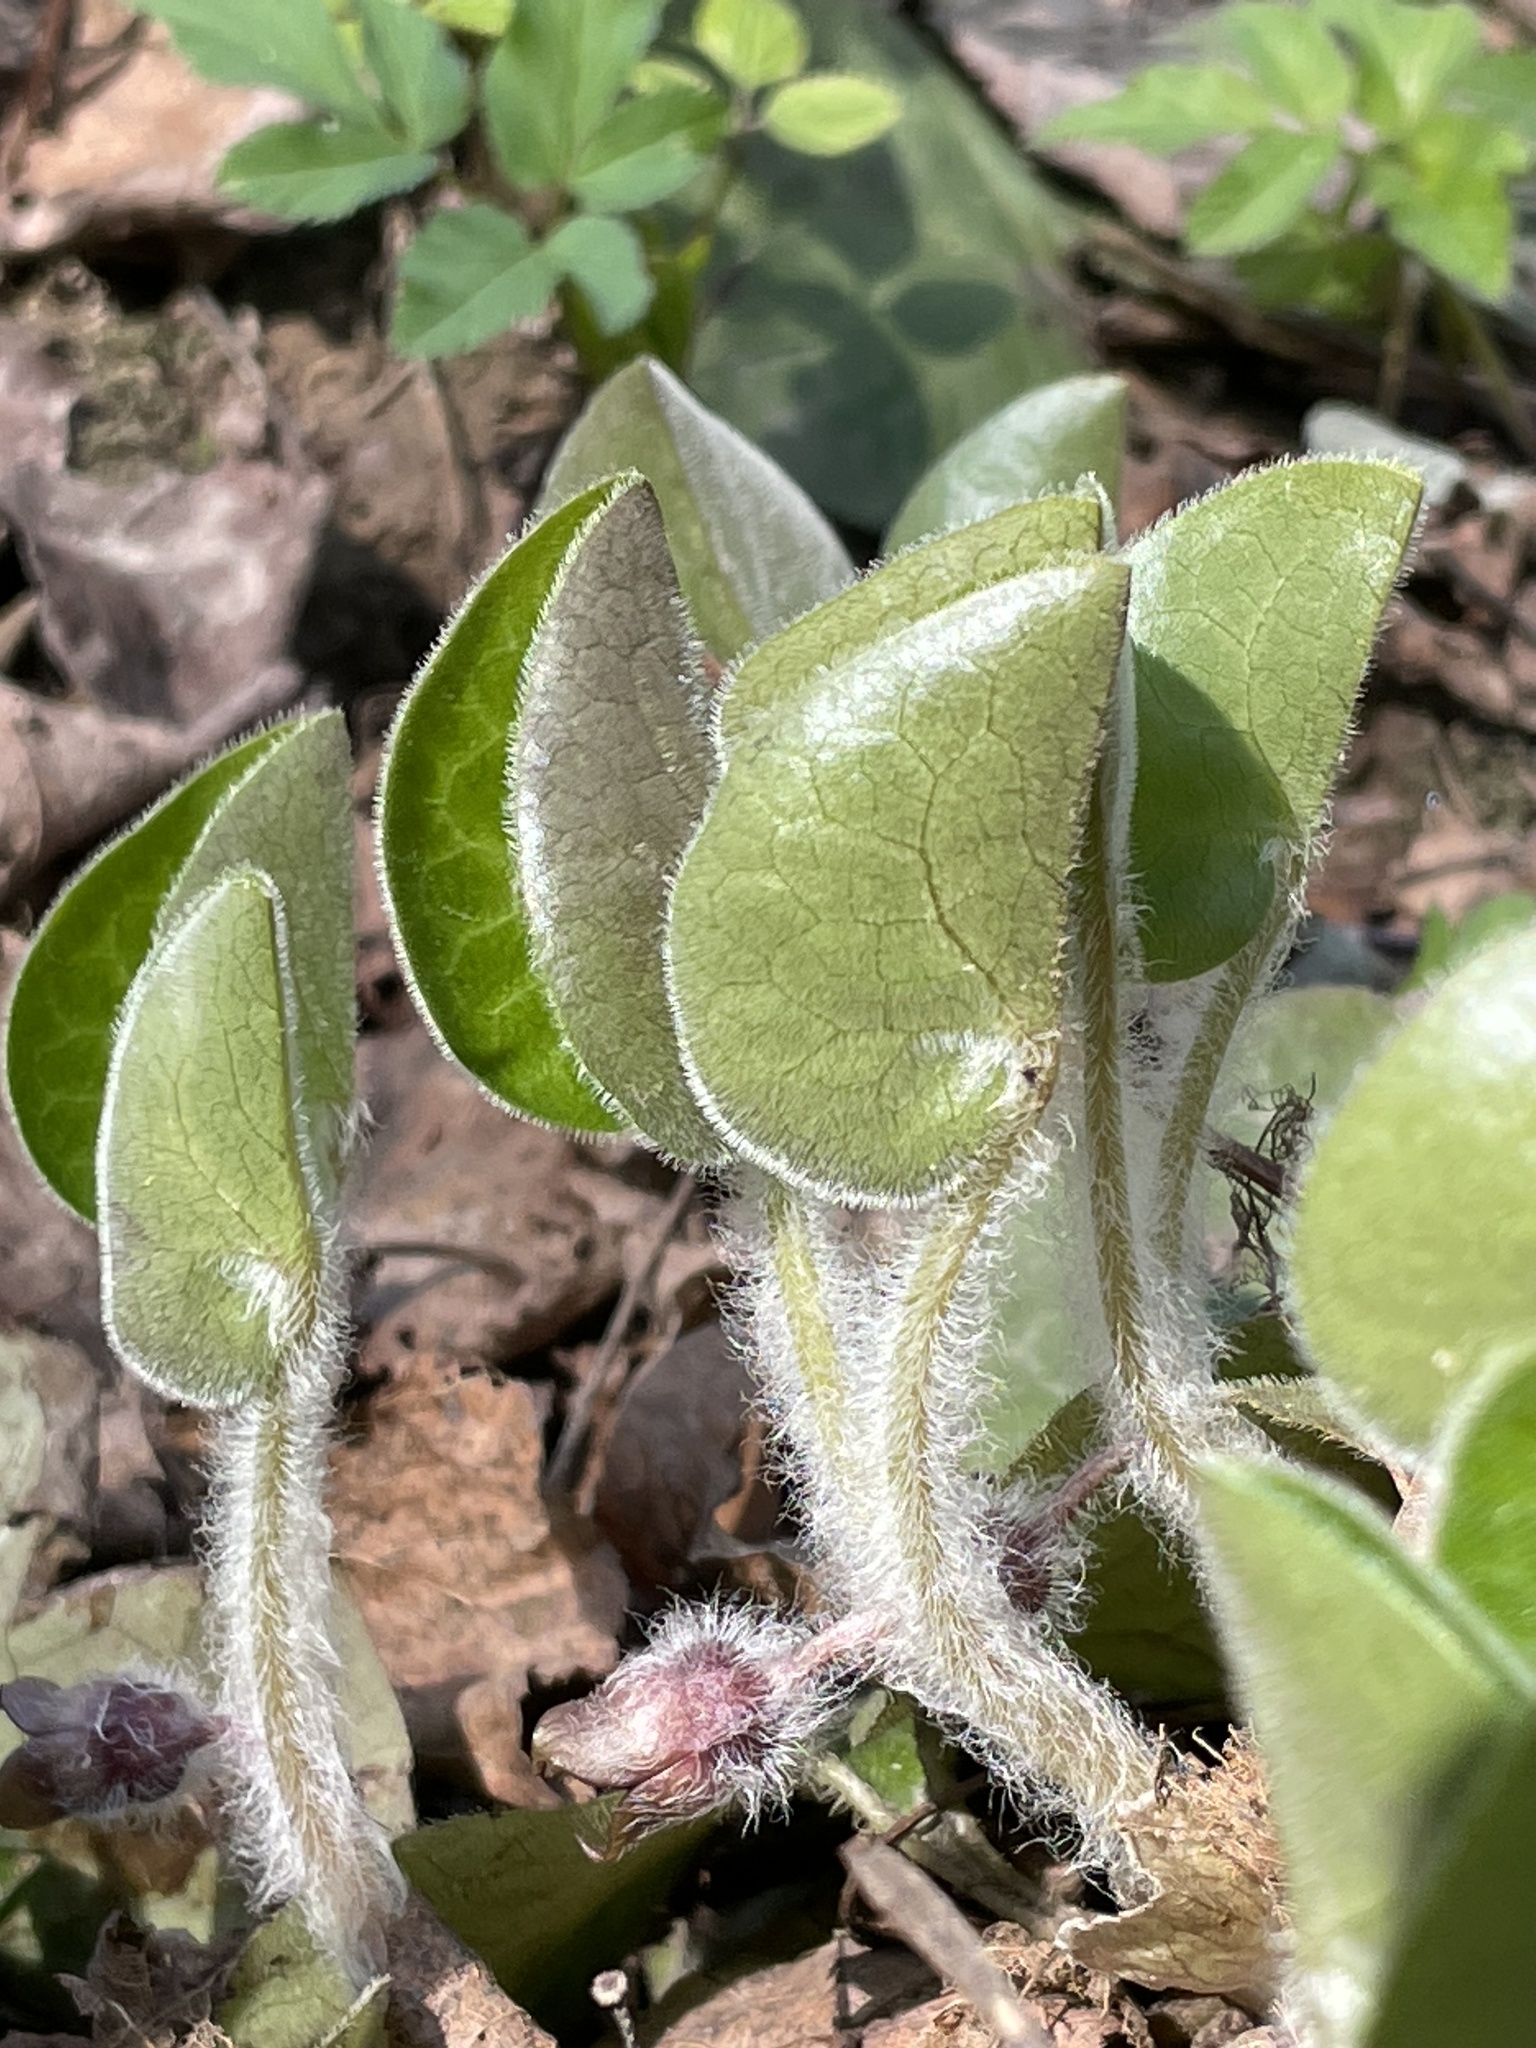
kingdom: Plantae
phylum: Tracheophyta
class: Magnoliopsida
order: Piperales
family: Aristolochiaceae
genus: Asarum
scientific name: Asarum europaeum
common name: Asarabacca
